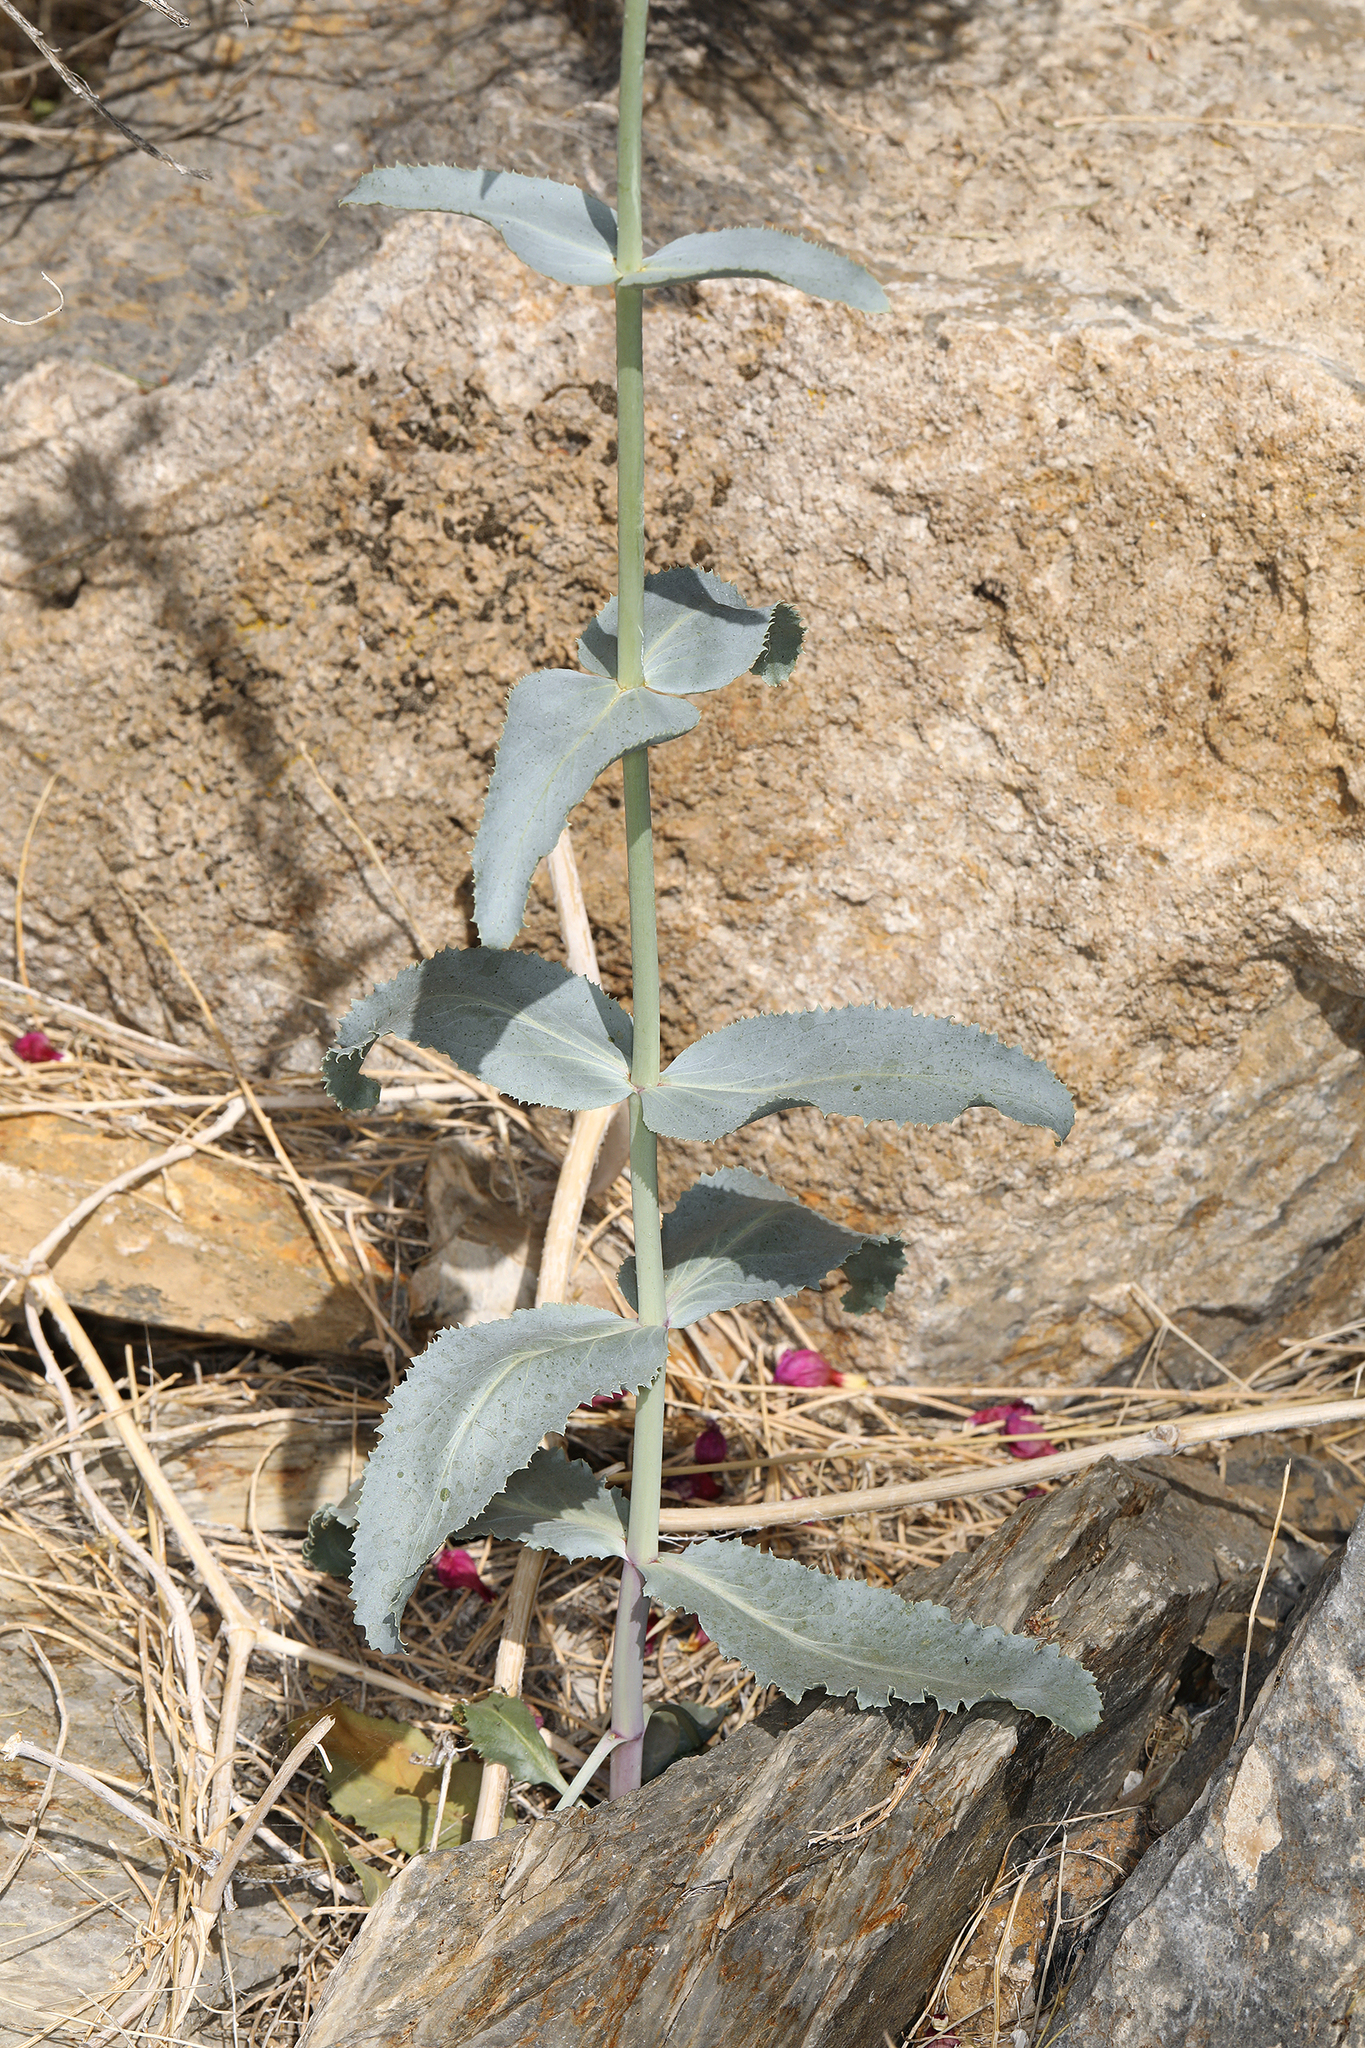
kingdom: Plantae
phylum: Tracheophyta
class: Magnoliopsida
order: Lamiales
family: Plantaginaceae
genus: Penstemon
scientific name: Penstemon floridus
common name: Panamint penstemon
